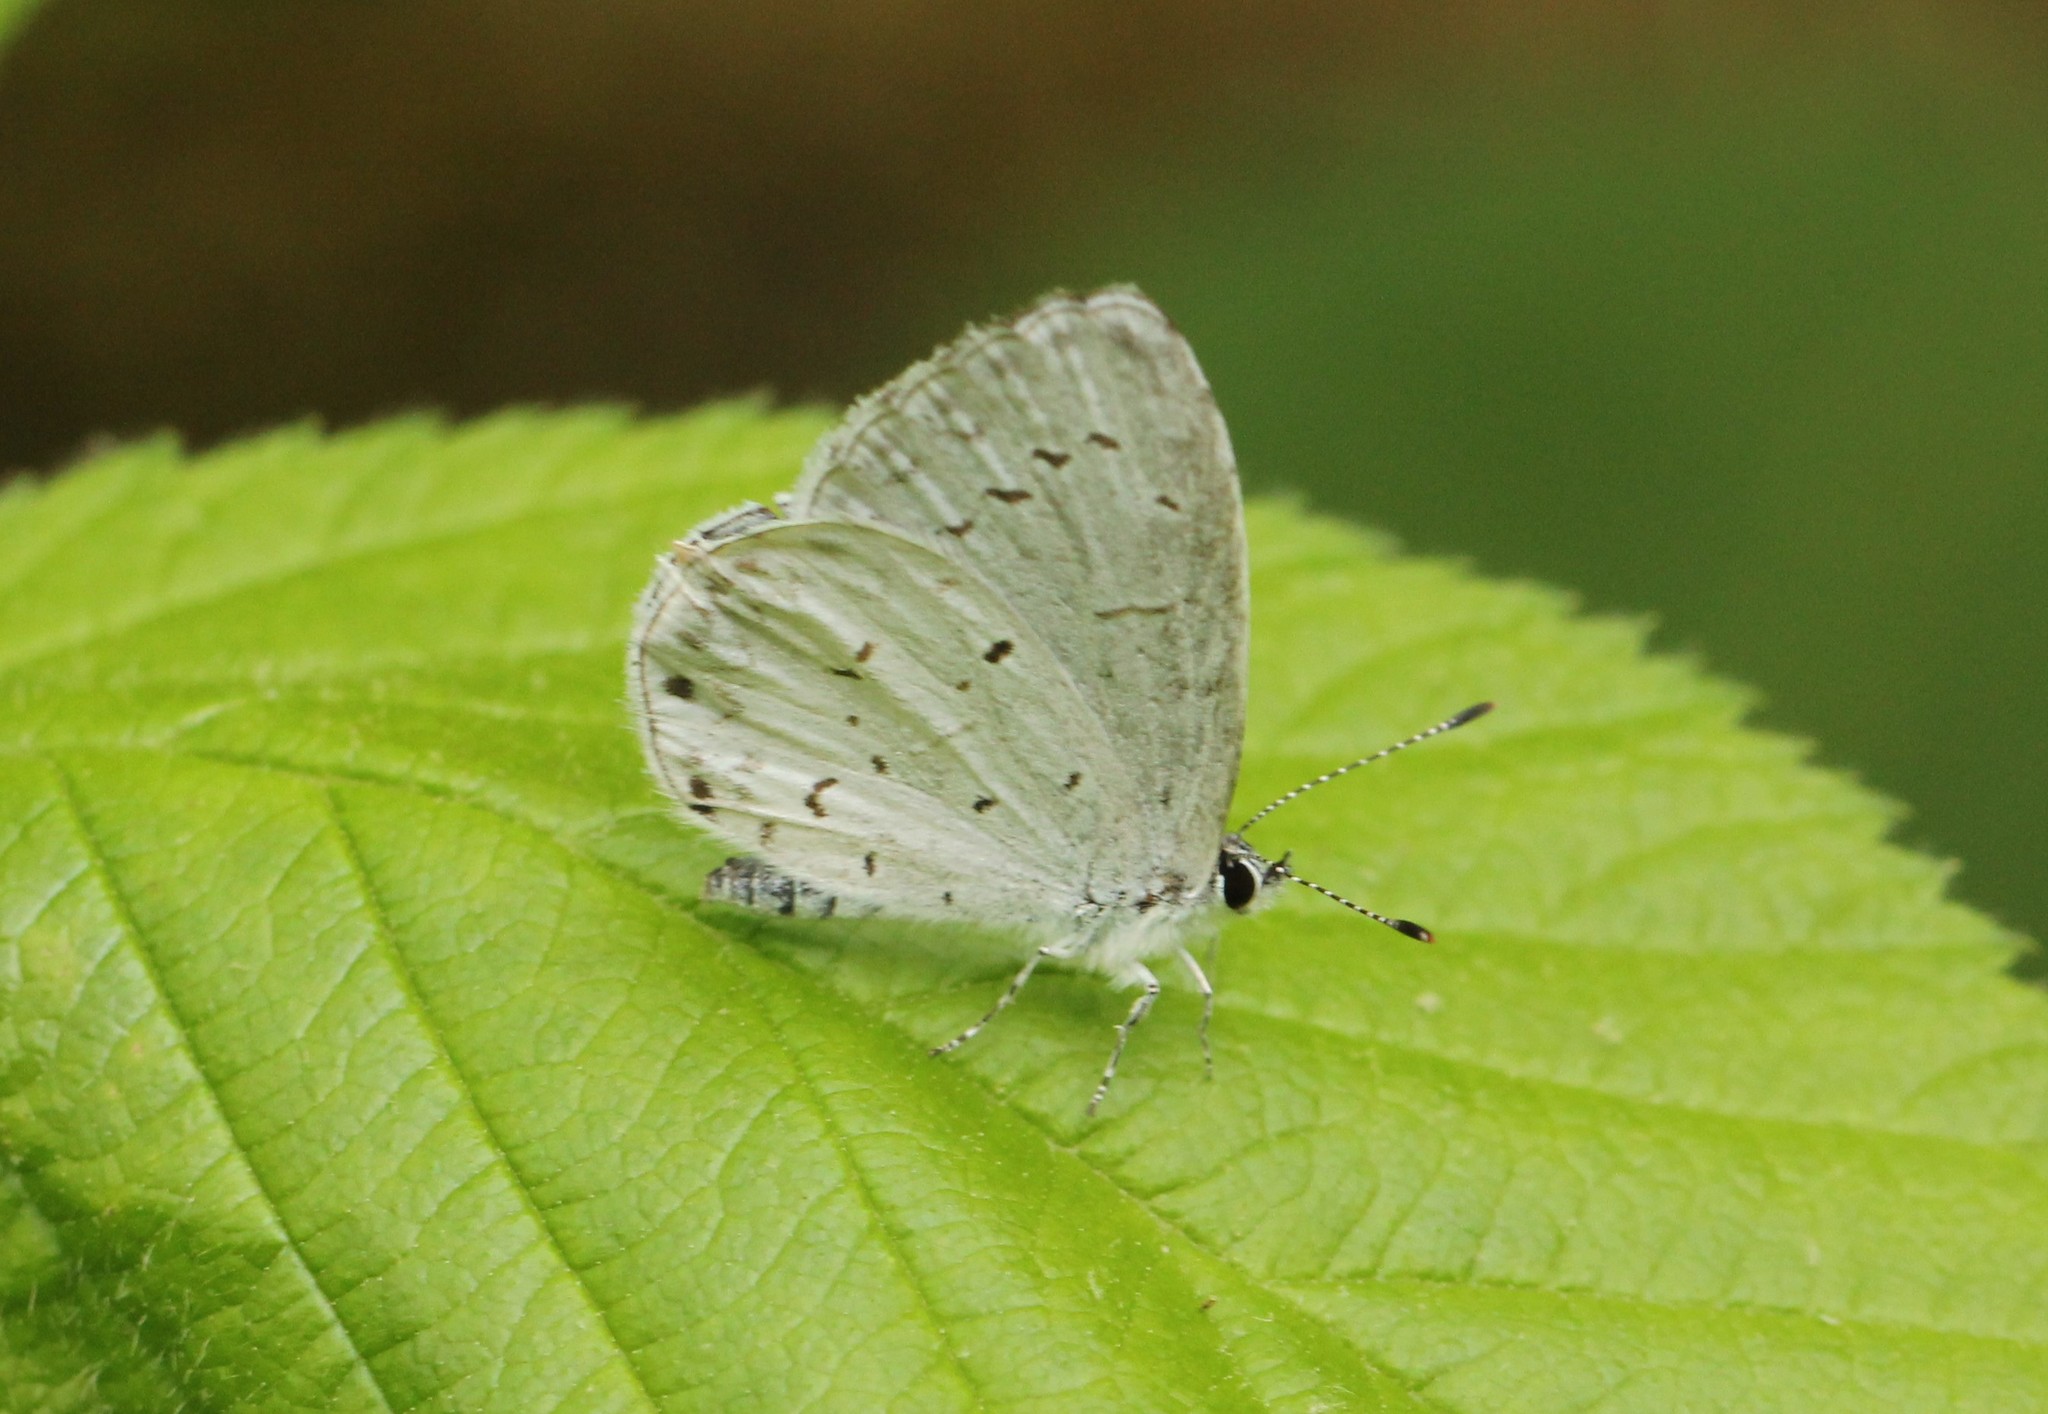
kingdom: Animalia
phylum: Arthropoda
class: Insecta
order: Lepidoptera
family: Lycaenidae
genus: Cyaniris
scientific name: Cyaniris neglecta
